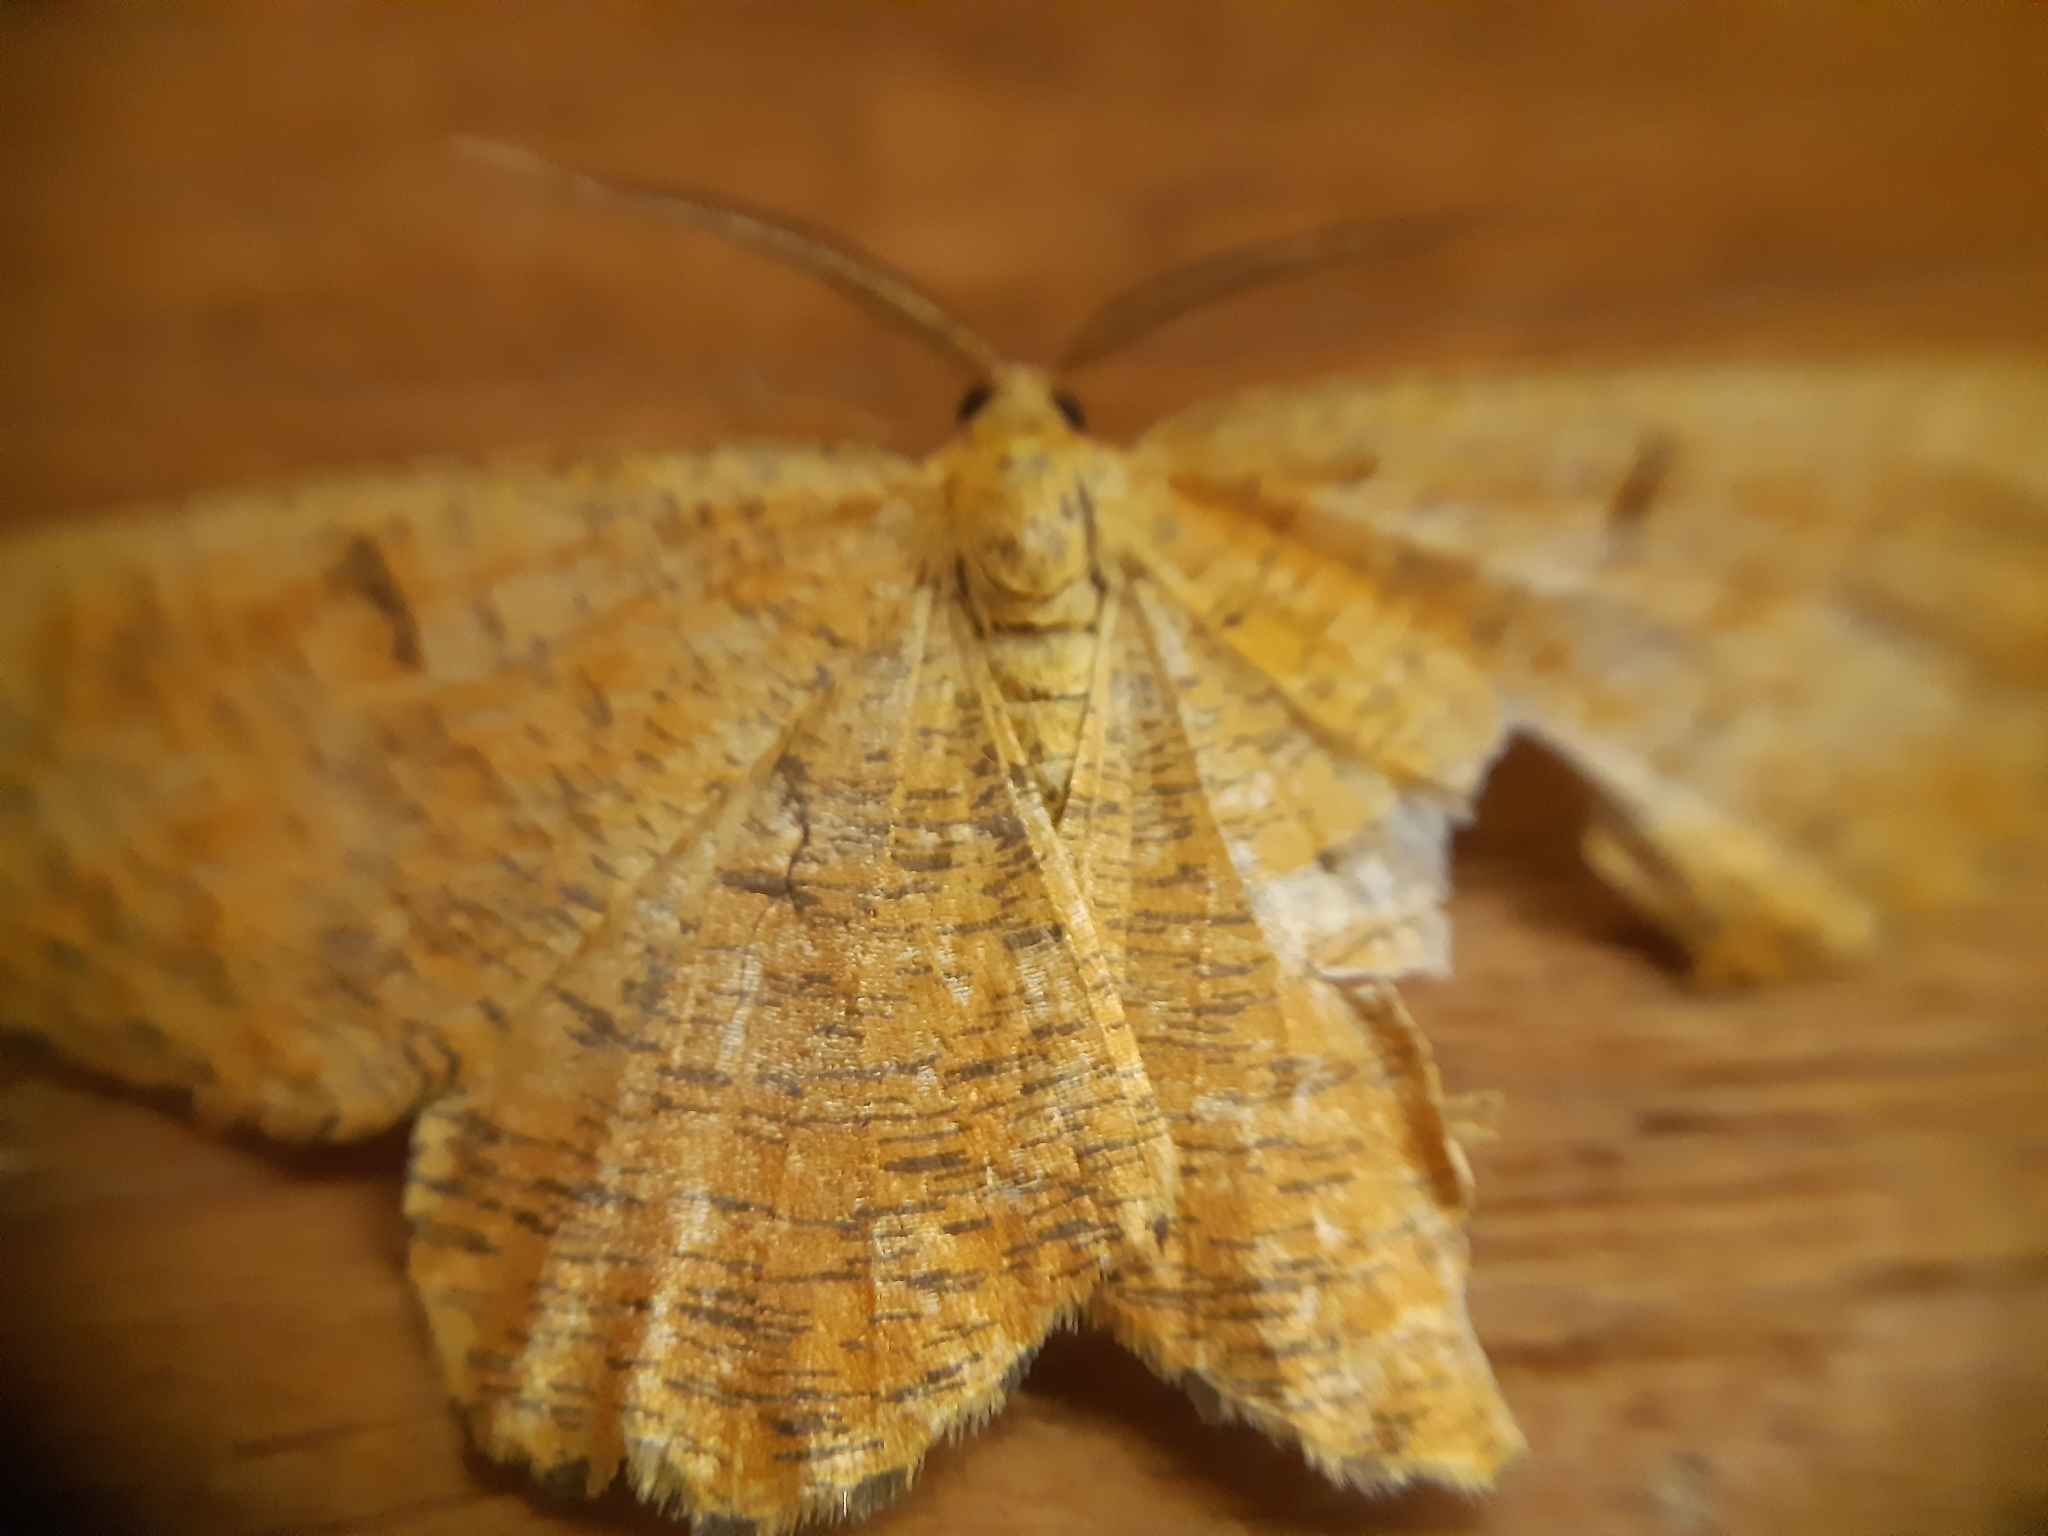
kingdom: Animalia
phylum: Arthropoda
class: Insecta
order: Lepidoptera
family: Geometridae
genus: Angerona
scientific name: Angerona prunaria
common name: Orange moth
